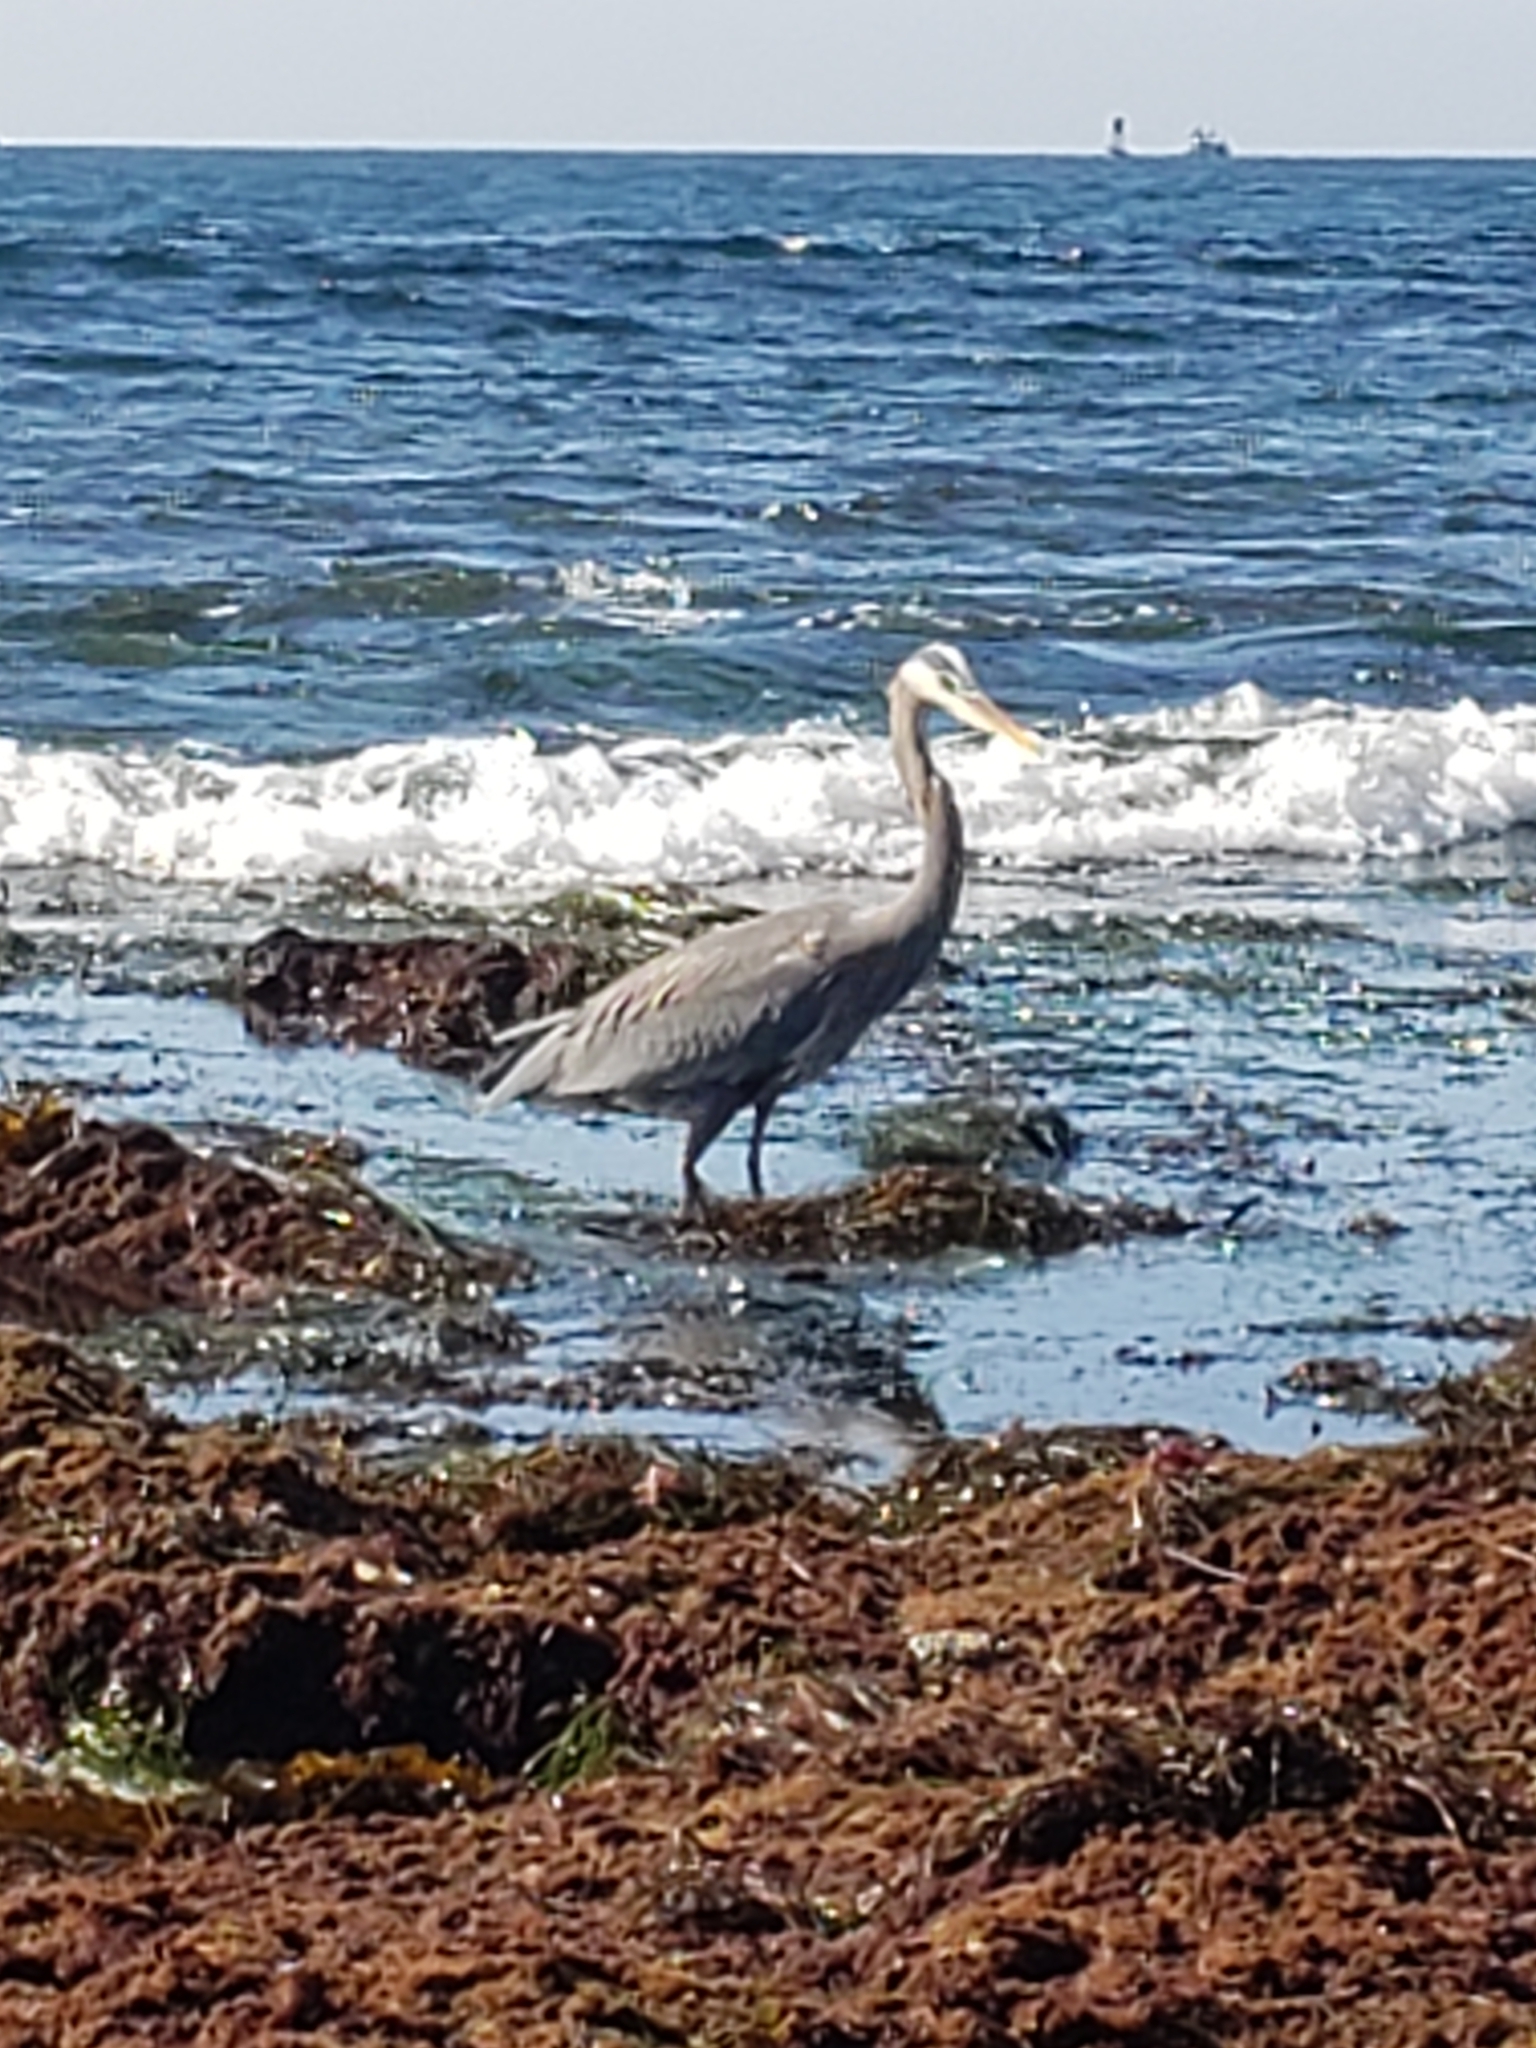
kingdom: Animalia
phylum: Chordata
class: Aves
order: Pelecaniformes
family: Ardeidae
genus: Ardea
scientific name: Ardea herodias
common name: Great blue heron
